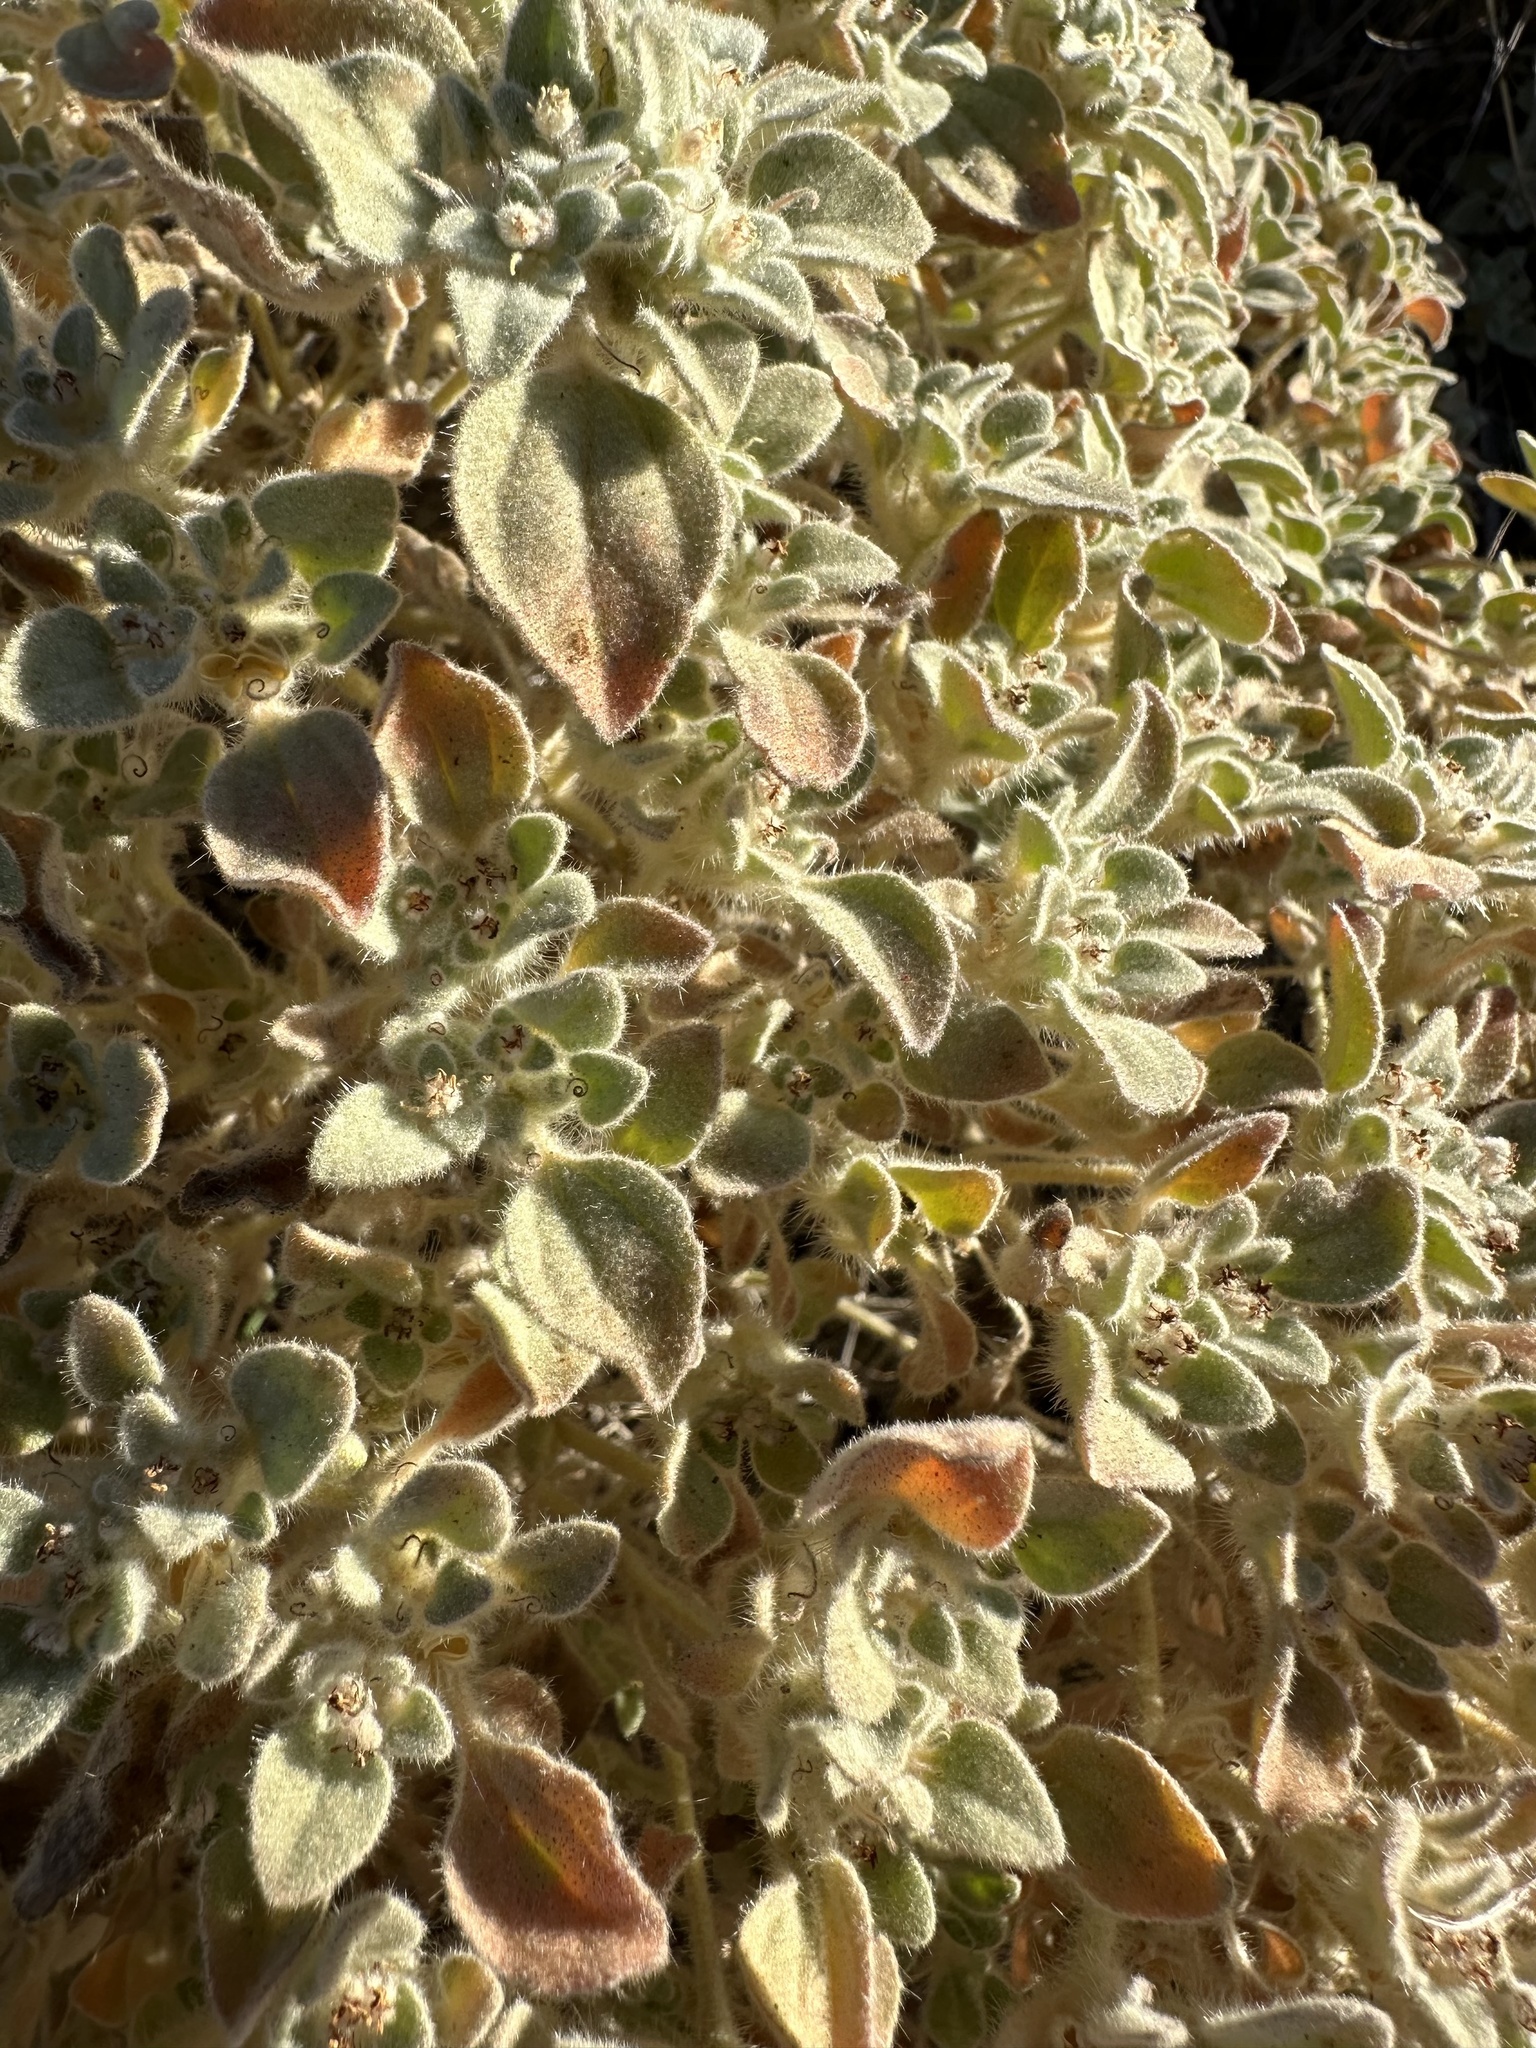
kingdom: Plantae
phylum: Tracheophyta
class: Magnoliopsida
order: Malpighiales
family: Euphorbiaceae
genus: Croton
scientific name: Croton setiger
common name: Dove weed
